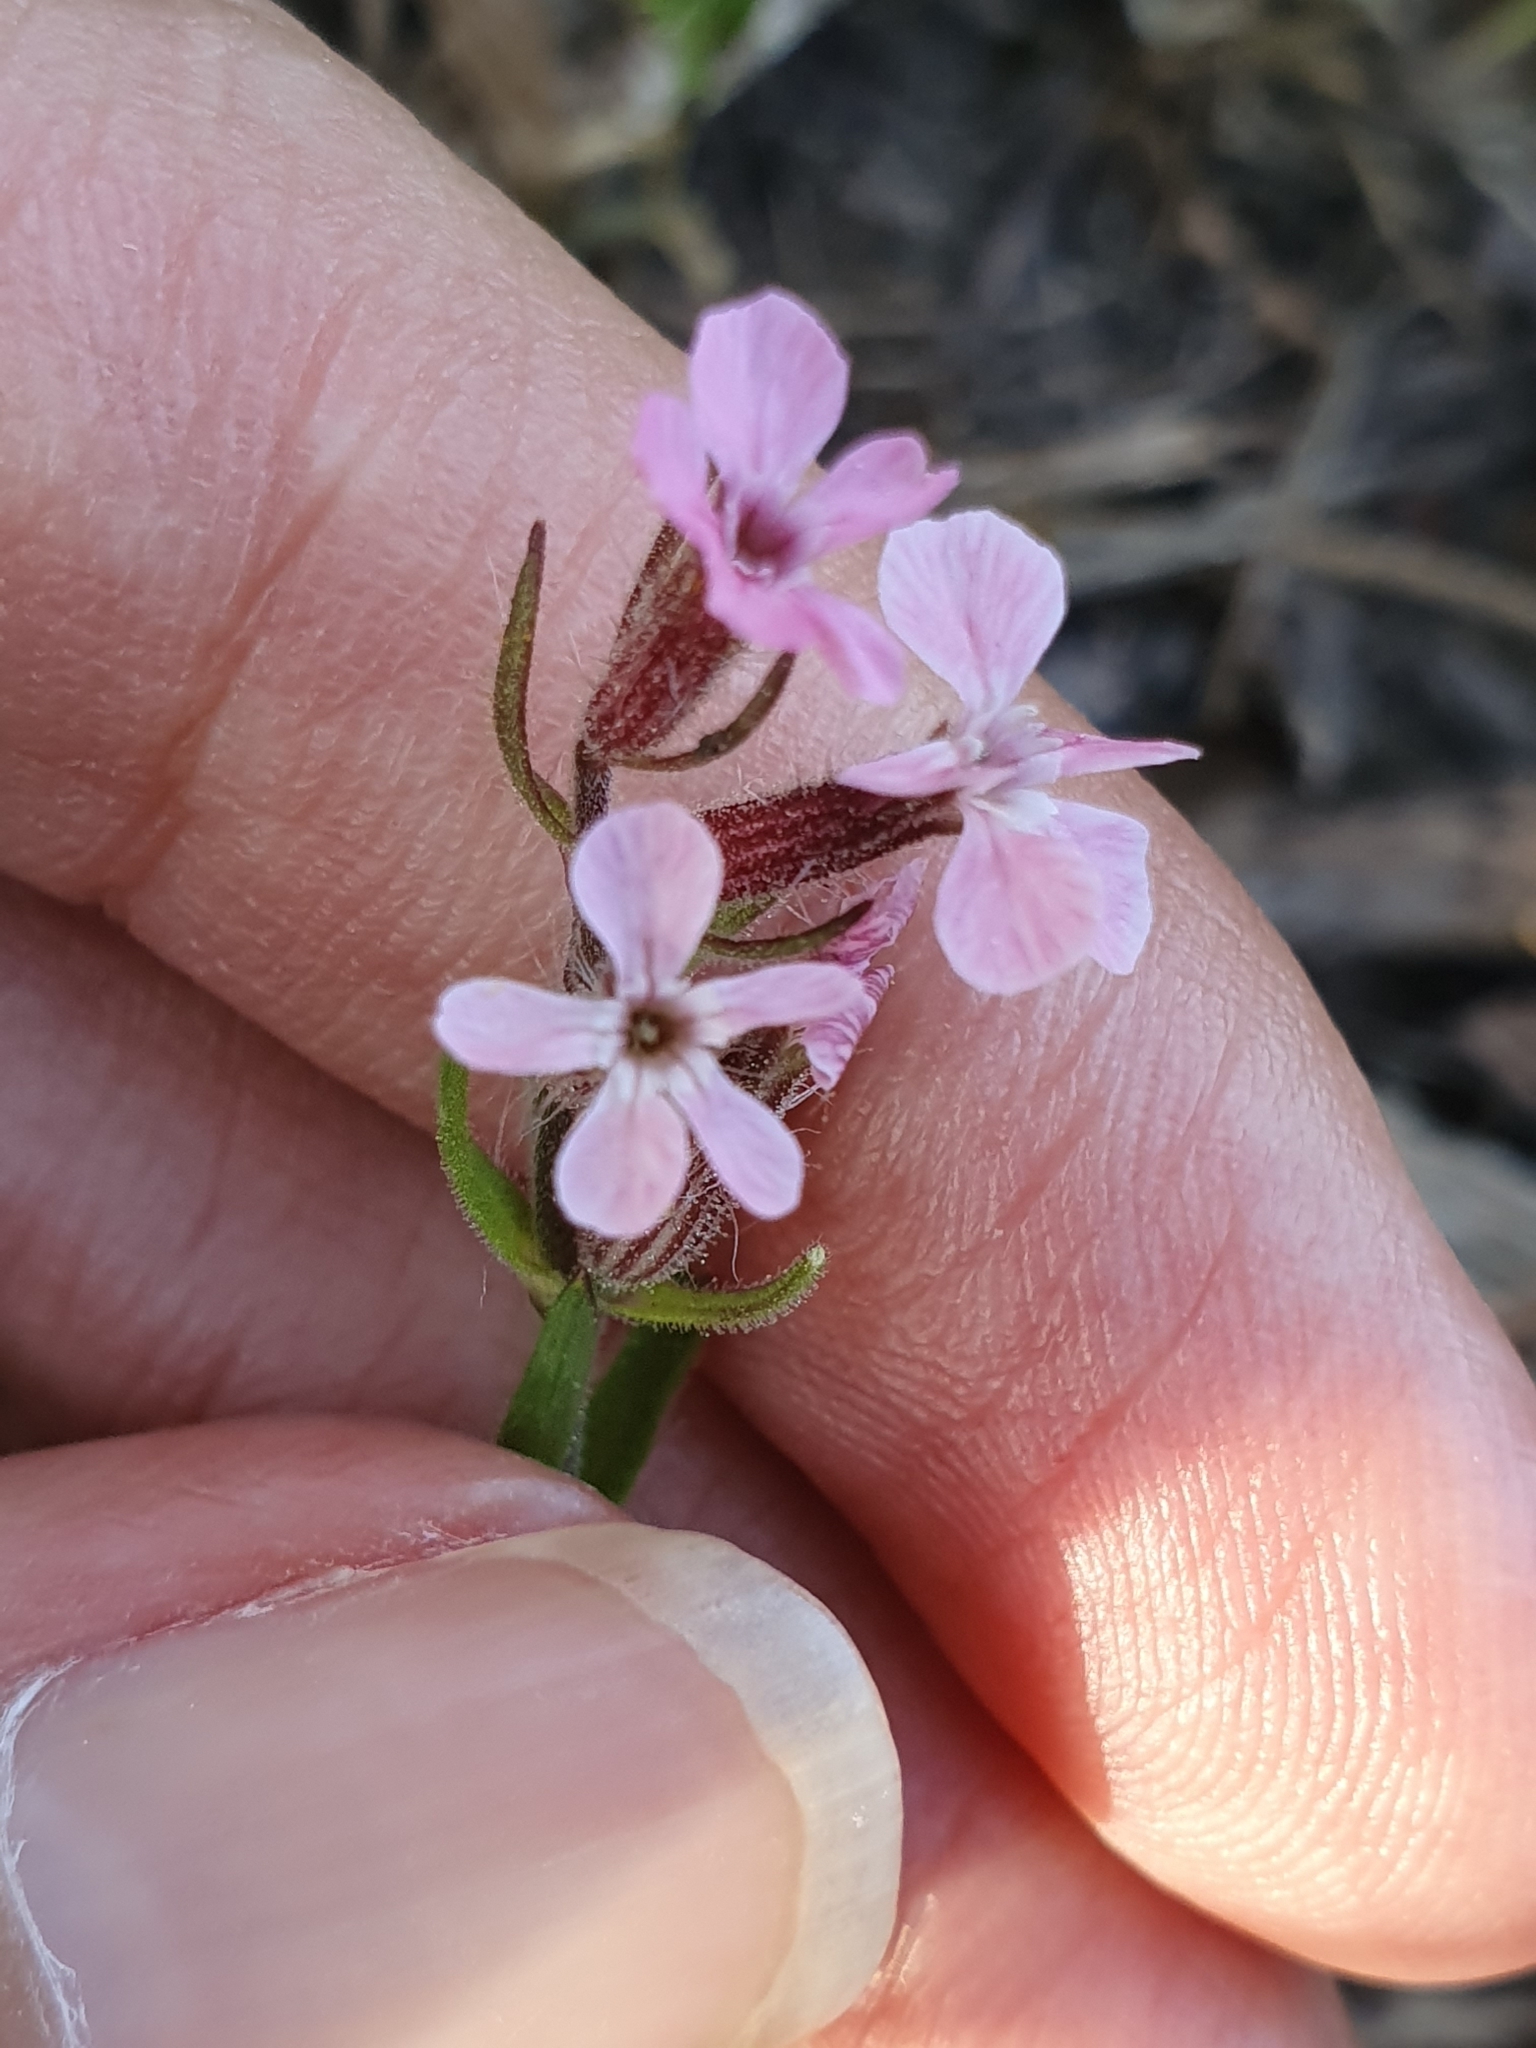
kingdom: Plantae
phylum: Tracheophyta
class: Magnoliopsida
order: Caryophyllales
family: Caryophyllaceae
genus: Silene
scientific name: Silene gallica
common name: Small-flowered catchfly
